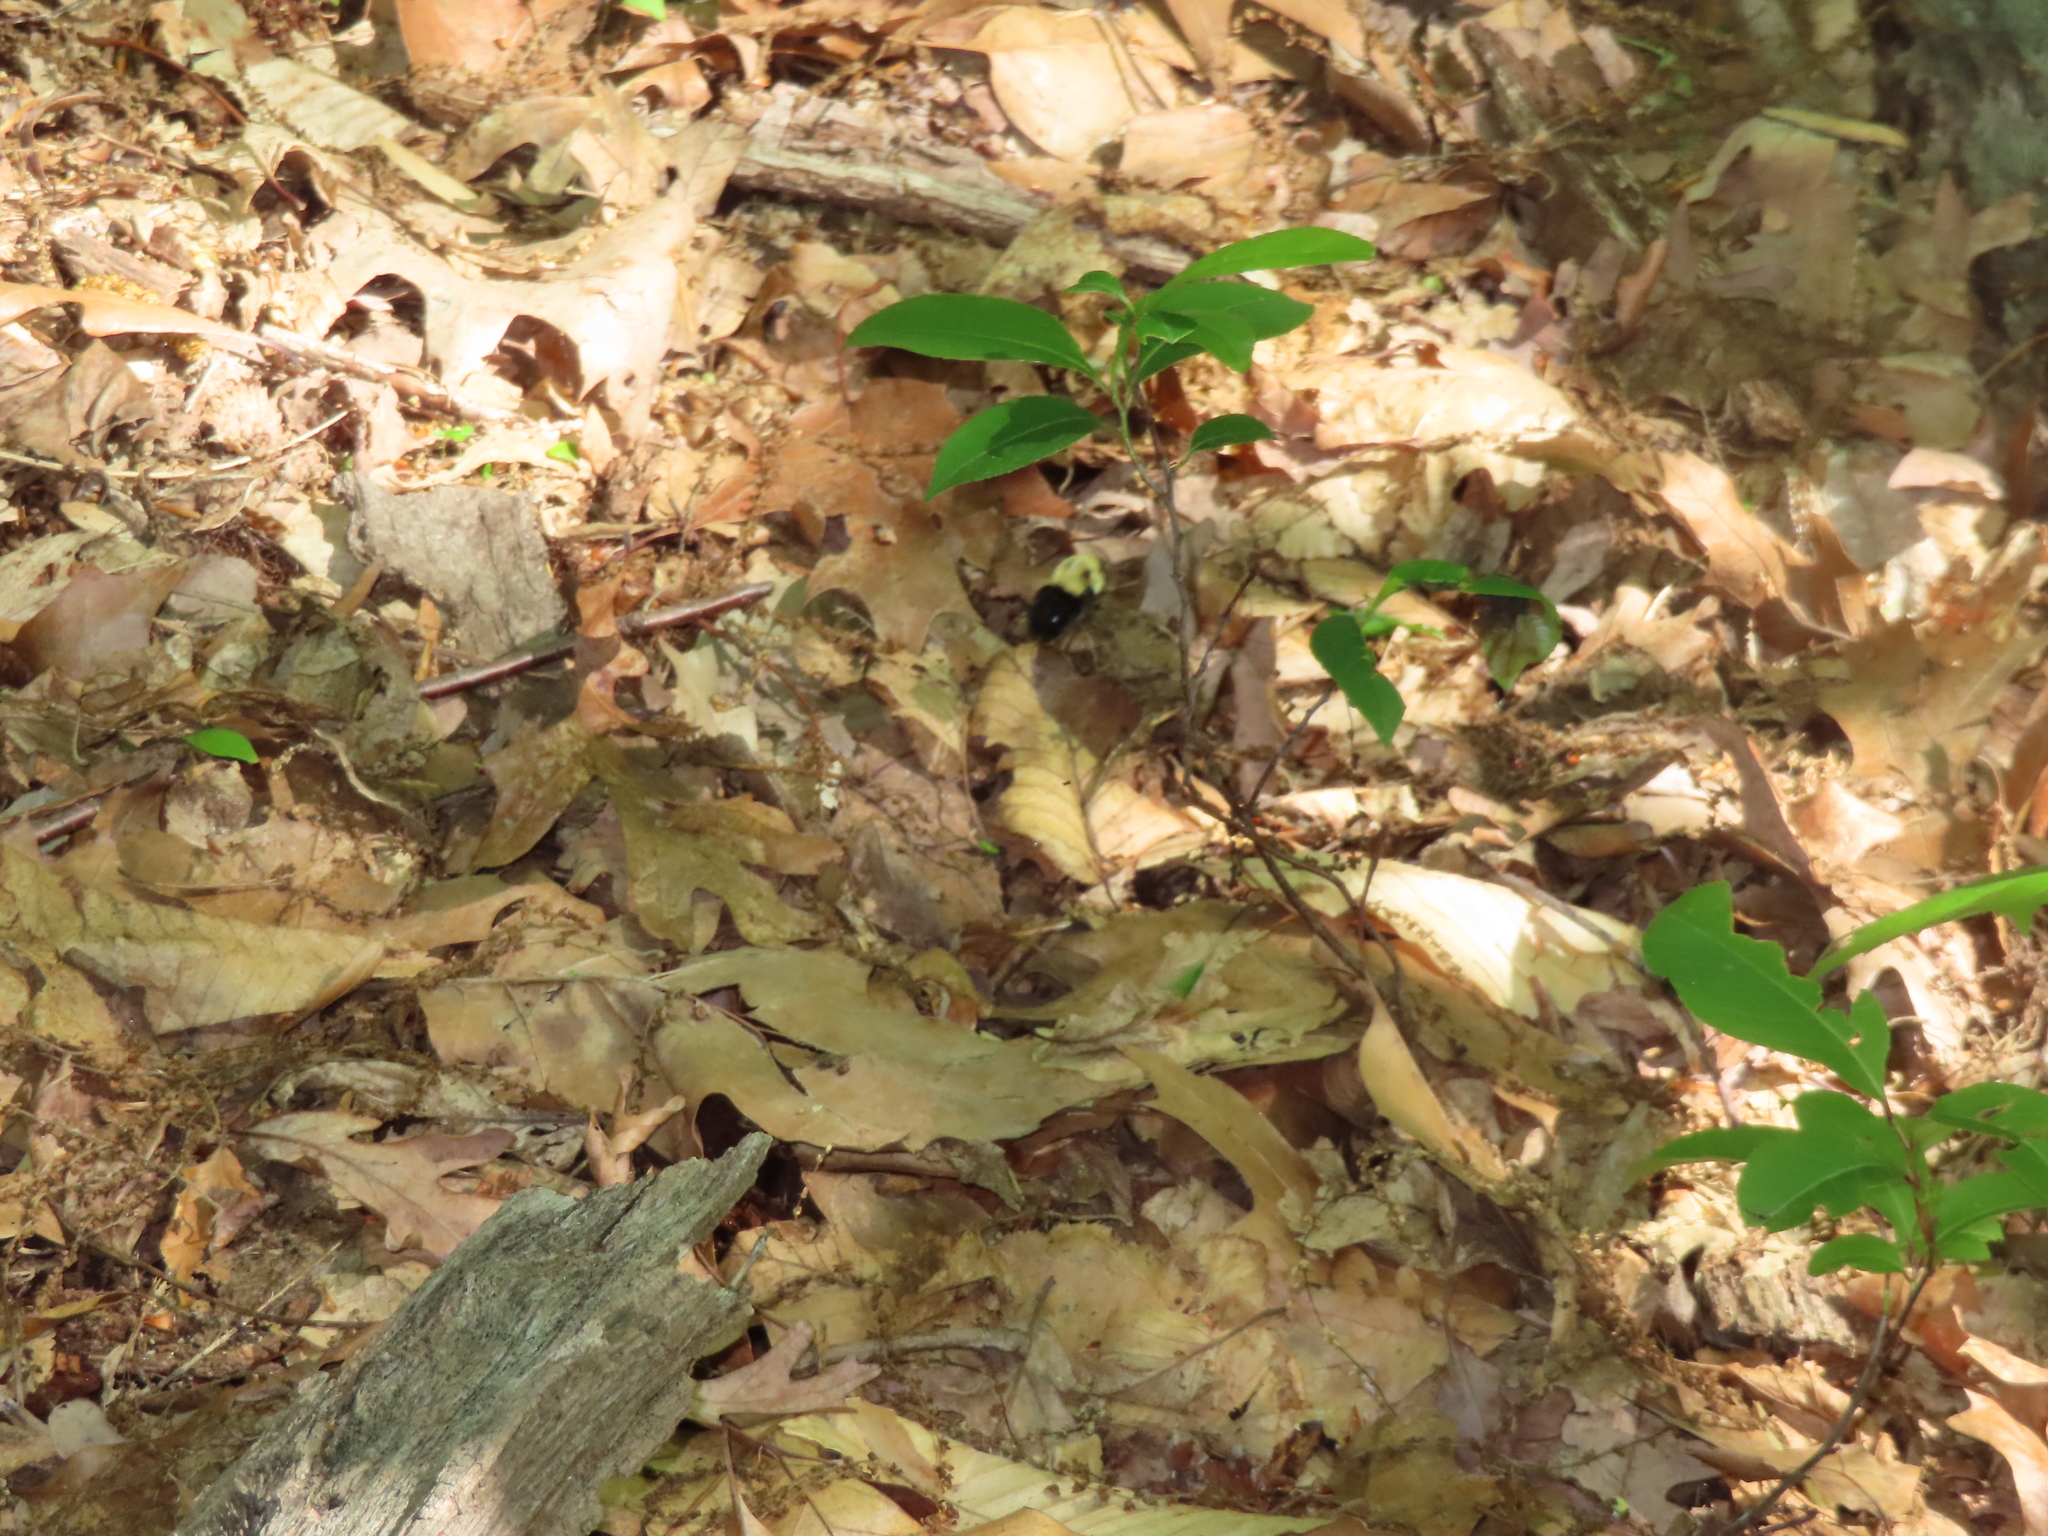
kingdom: Animalia
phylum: Arthropoda
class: Insecta
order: Hymenoptera
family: Apidae
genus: Bombus
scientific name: Bombus impatiens
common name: Common eastern bumble bee
